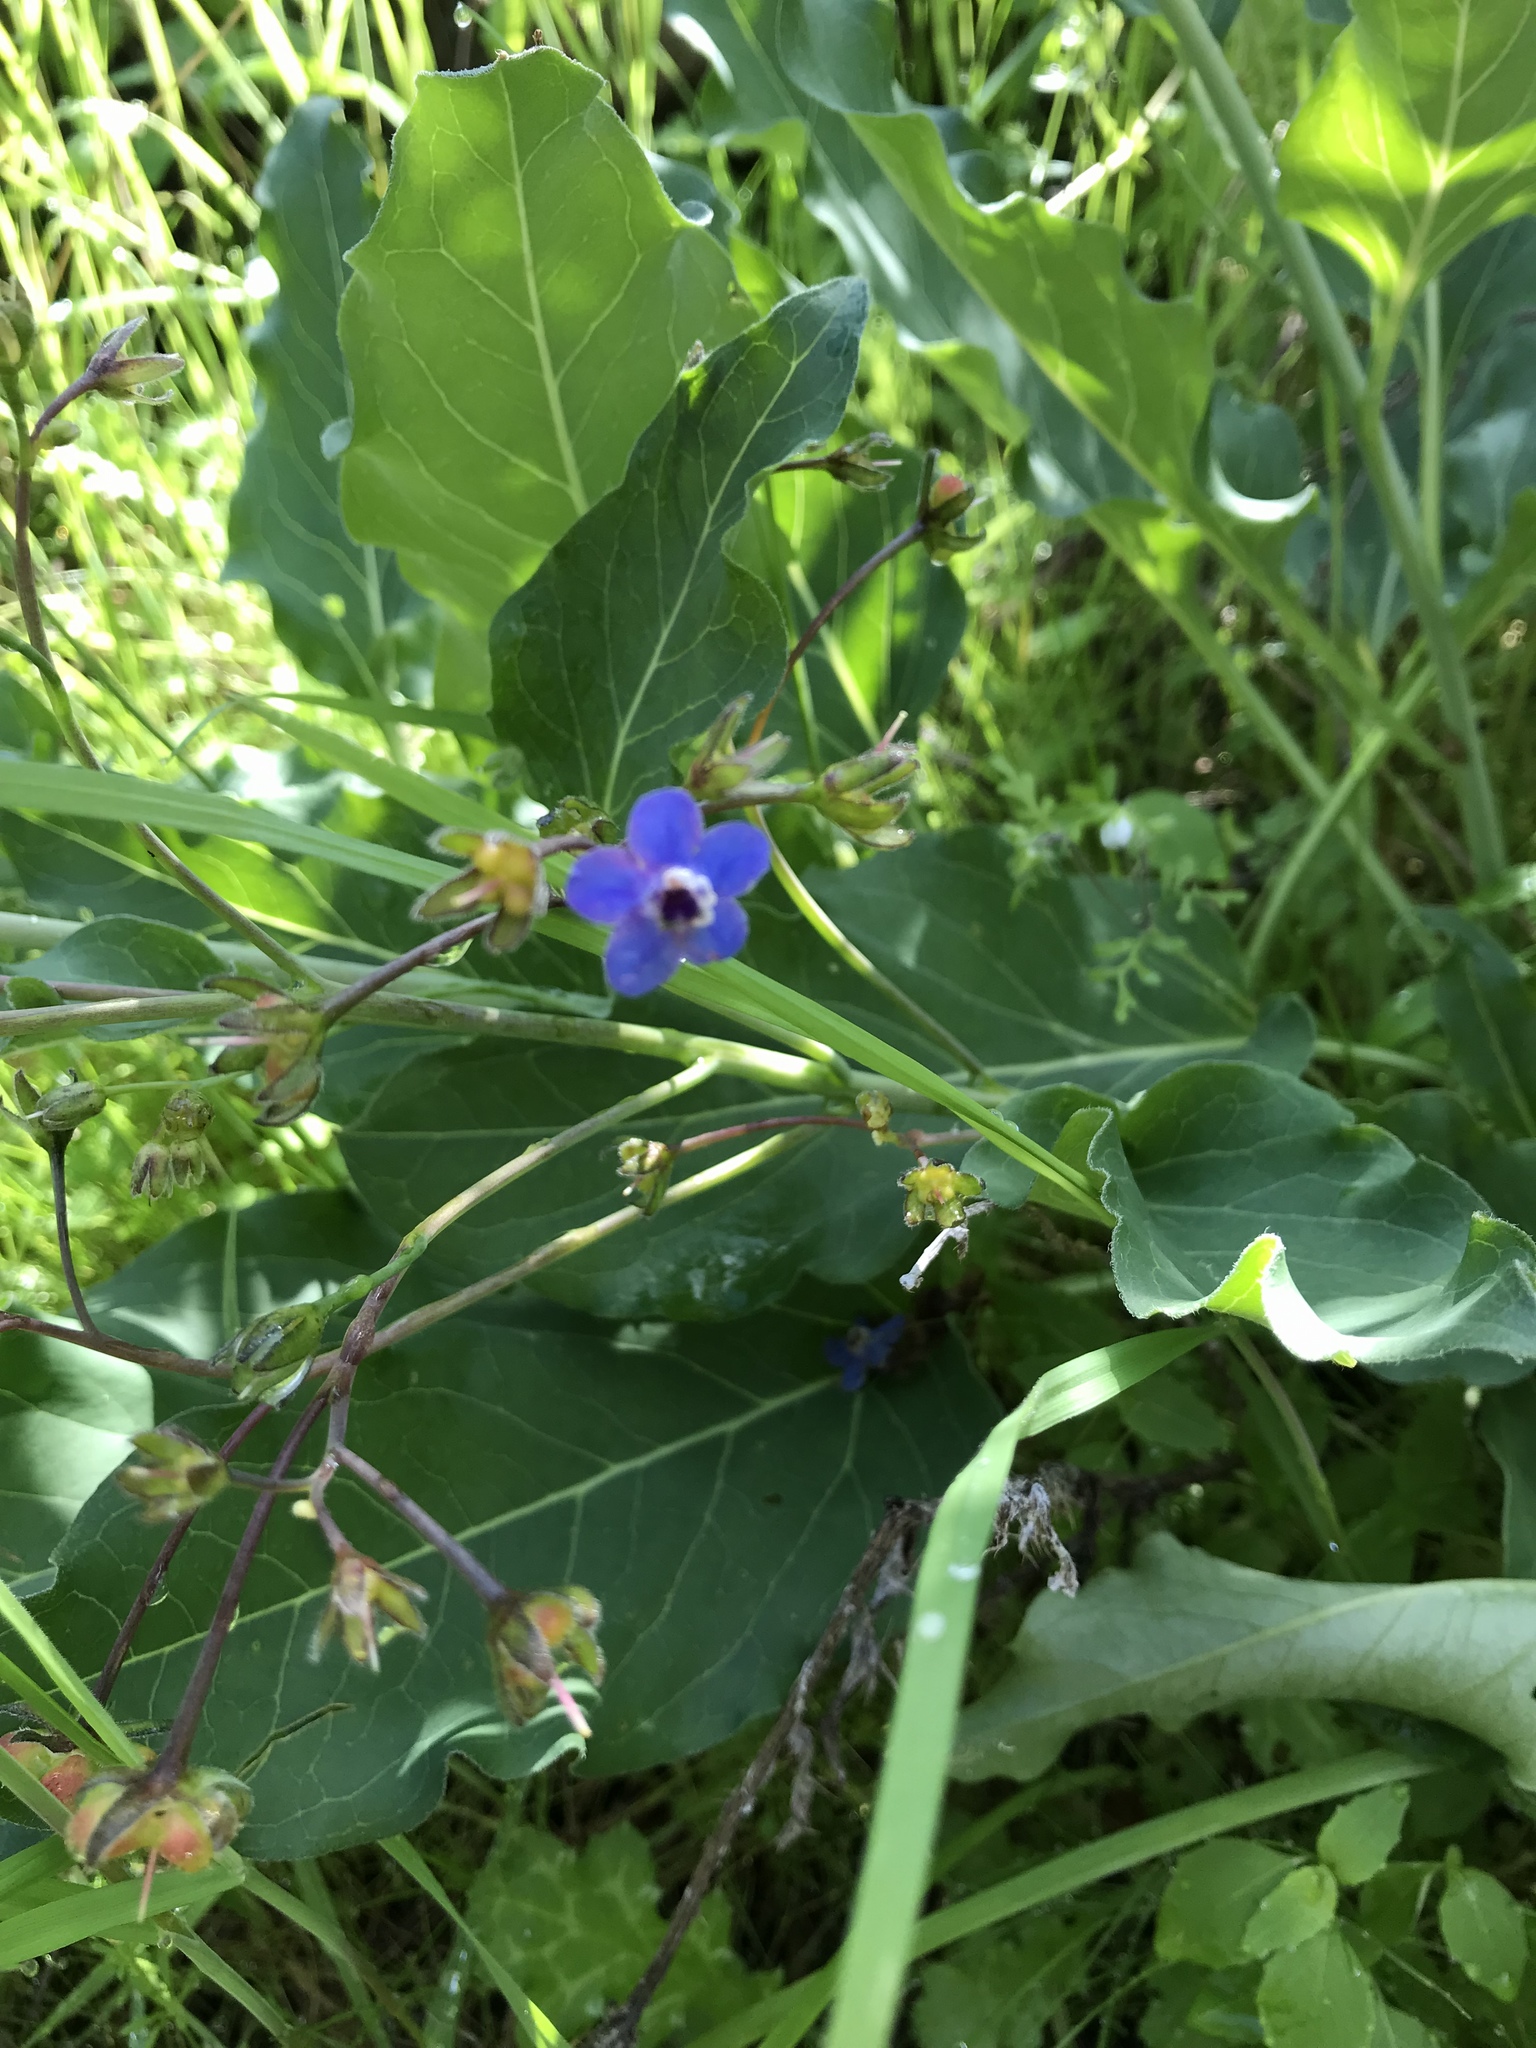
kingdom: Plantae
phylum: Tracheophyta
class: Magnoliopsida
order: Boraginales
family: Boraginaceae
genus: Adelinia
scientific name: Adelinia grande
